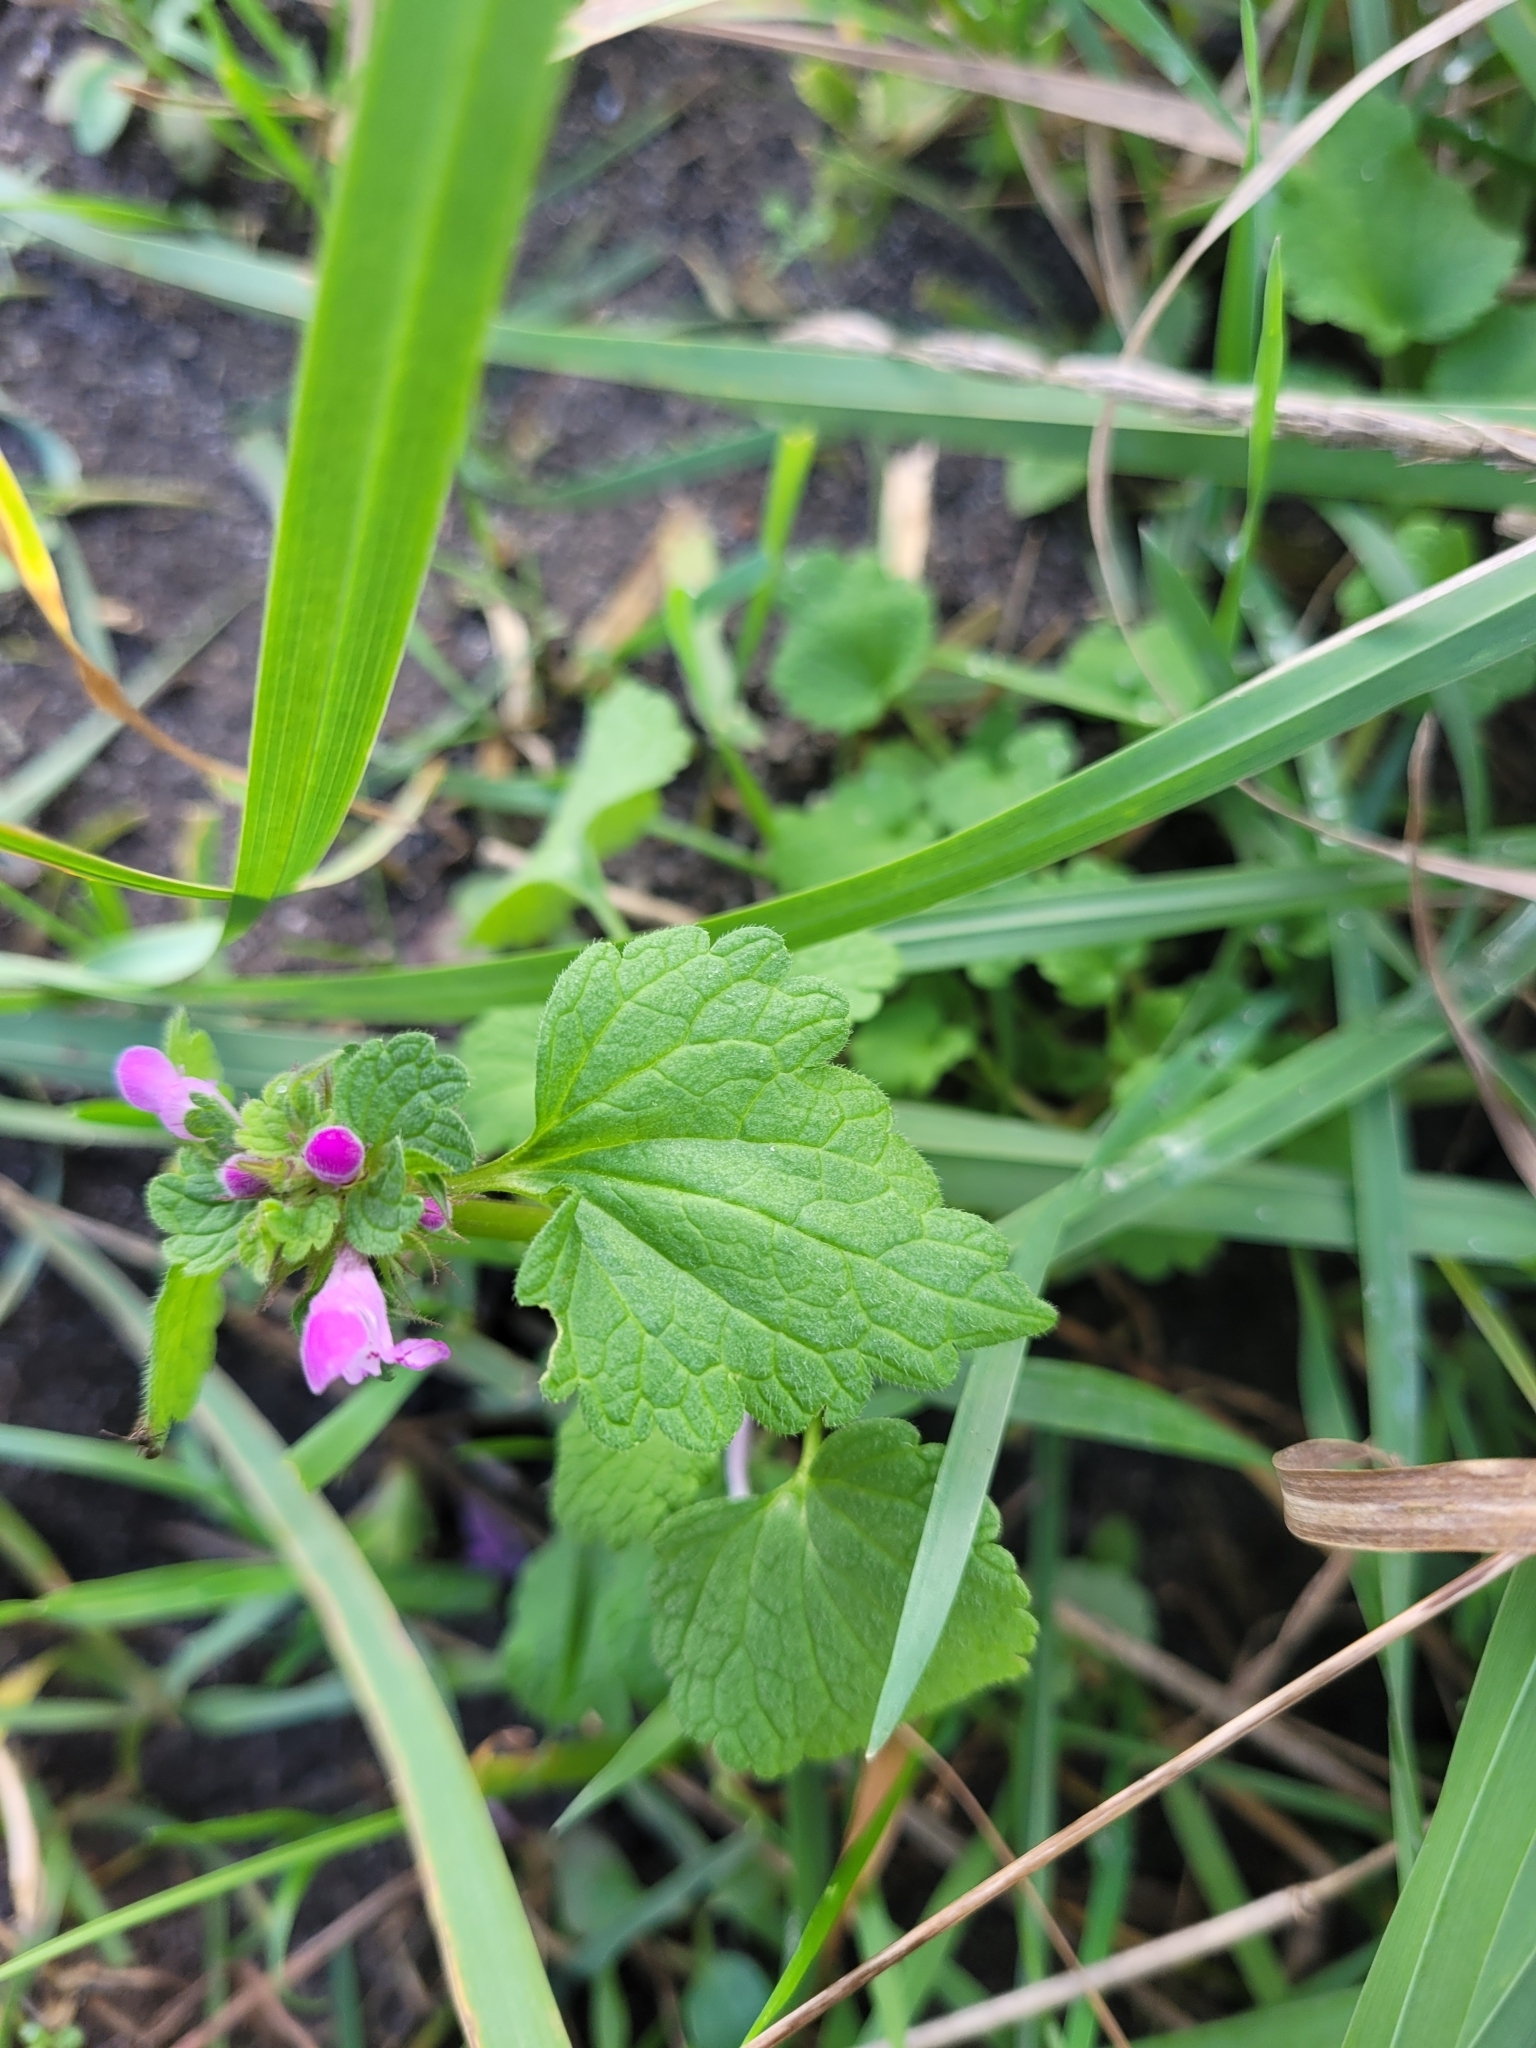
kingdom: Plantae
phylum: Tracheophyta
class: Magnoliopsida
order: Lamiales
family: Lamiaceae
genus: Lamium
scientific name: Lamium purpureum
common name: Red dead-nettle
